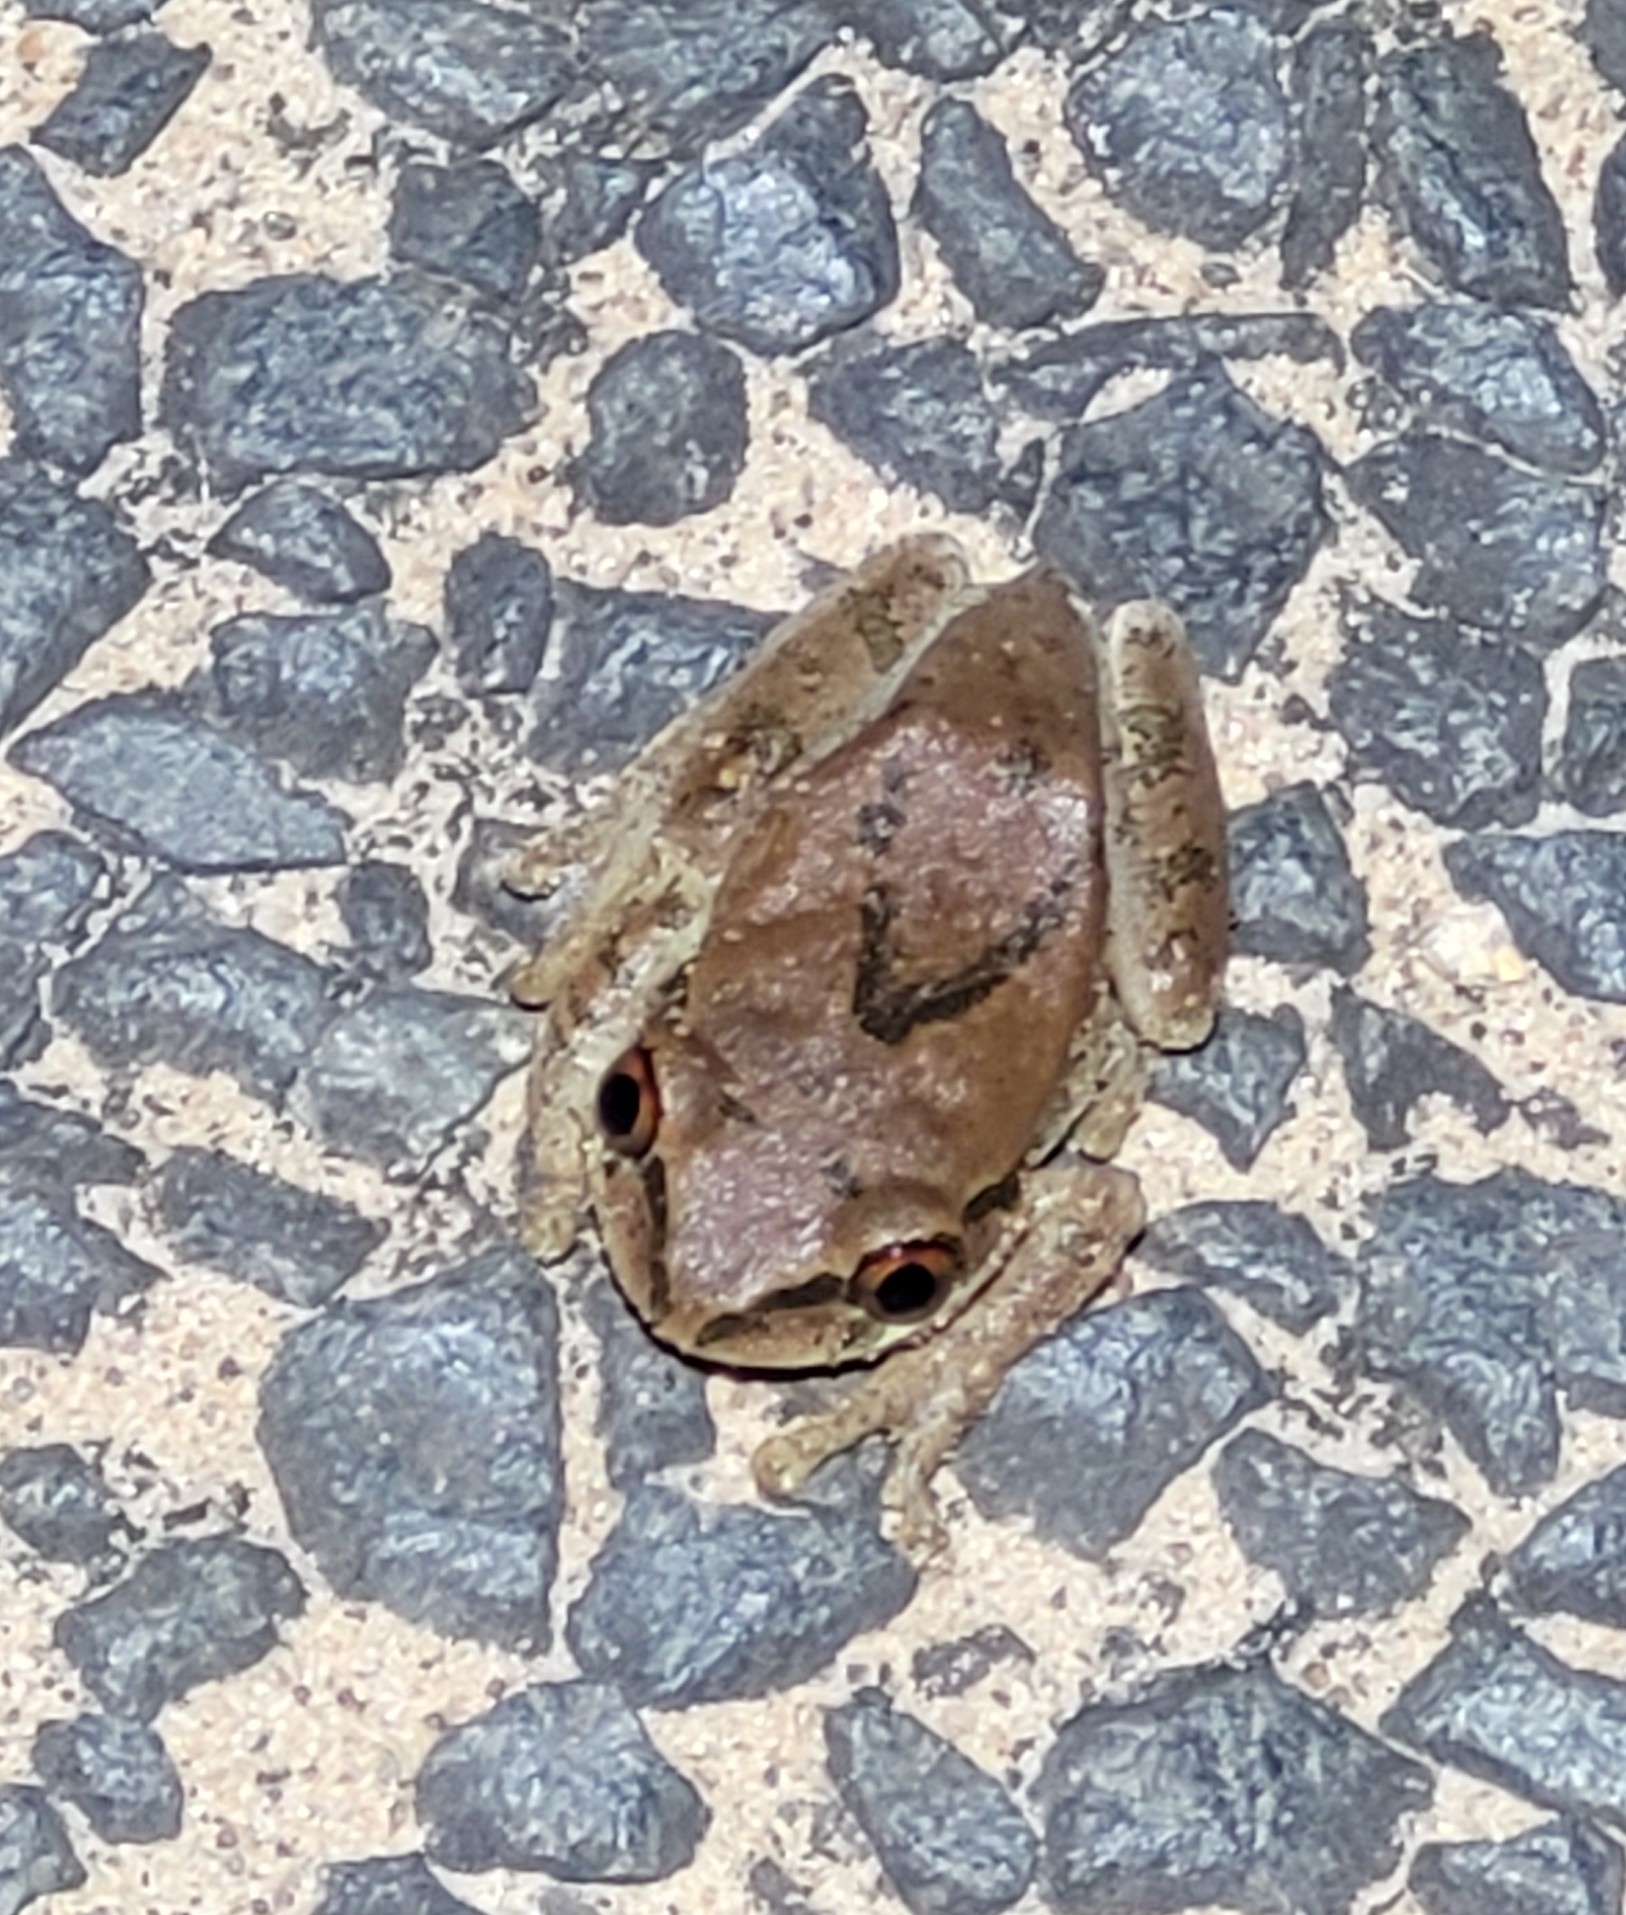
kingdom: Animalia
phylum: Chordata
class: Amphibia
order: Anura
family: Arthroleptidae
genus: Leptopelis
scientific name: Leptopelis mossambicus
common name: Mozambique tree frog
